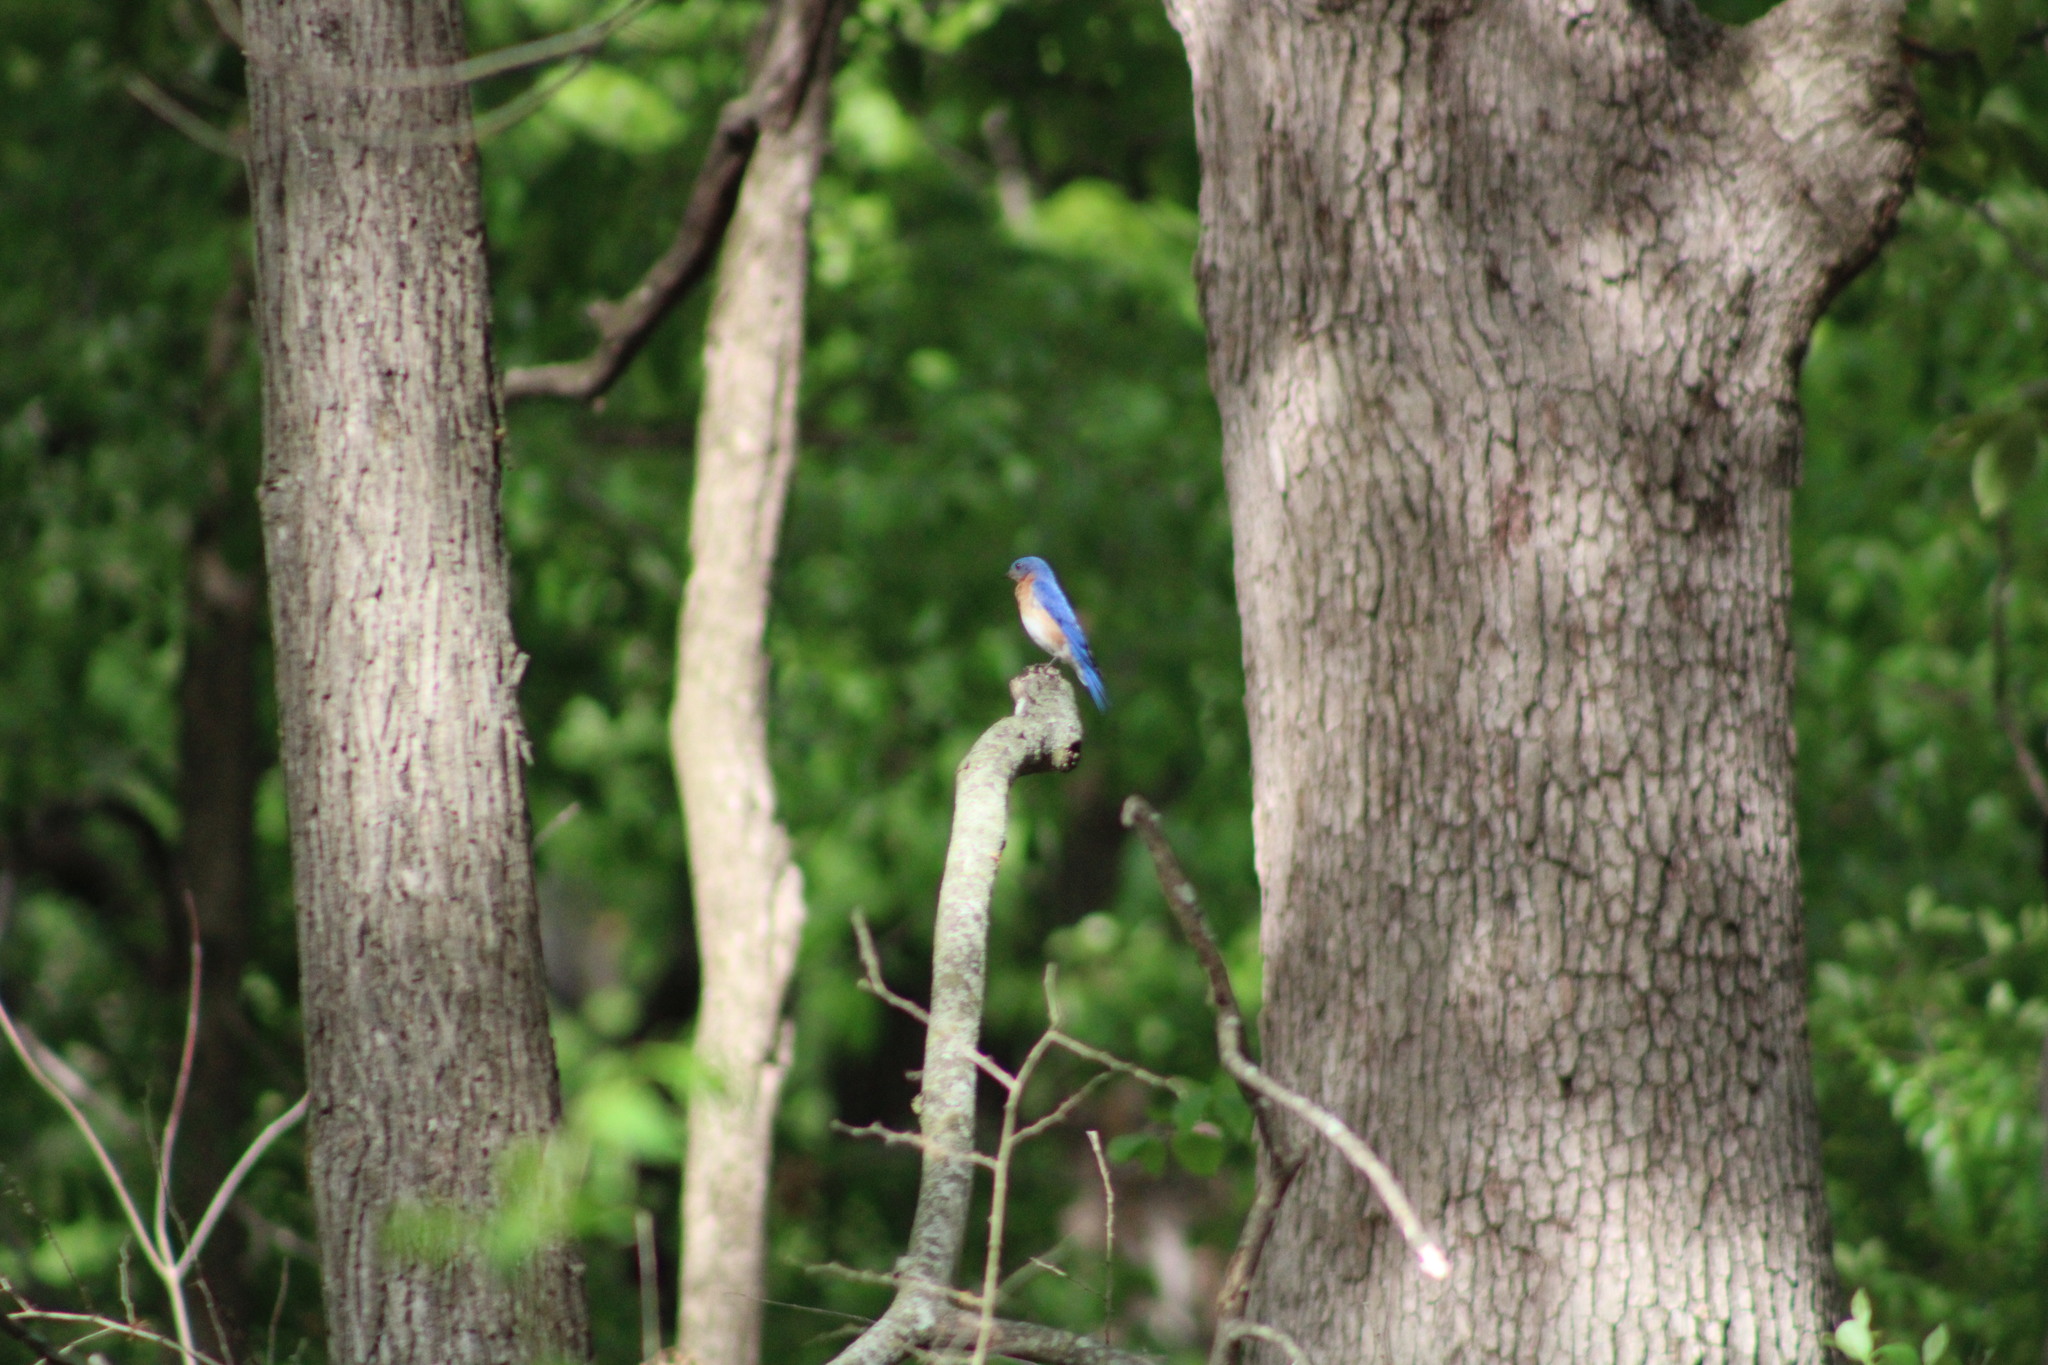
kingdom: Animalia
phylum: Chordata
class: Aves
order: Passeriformes
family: Turdidae
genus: Sialia
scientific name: Sialia sialis
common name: Eastern bluebird
